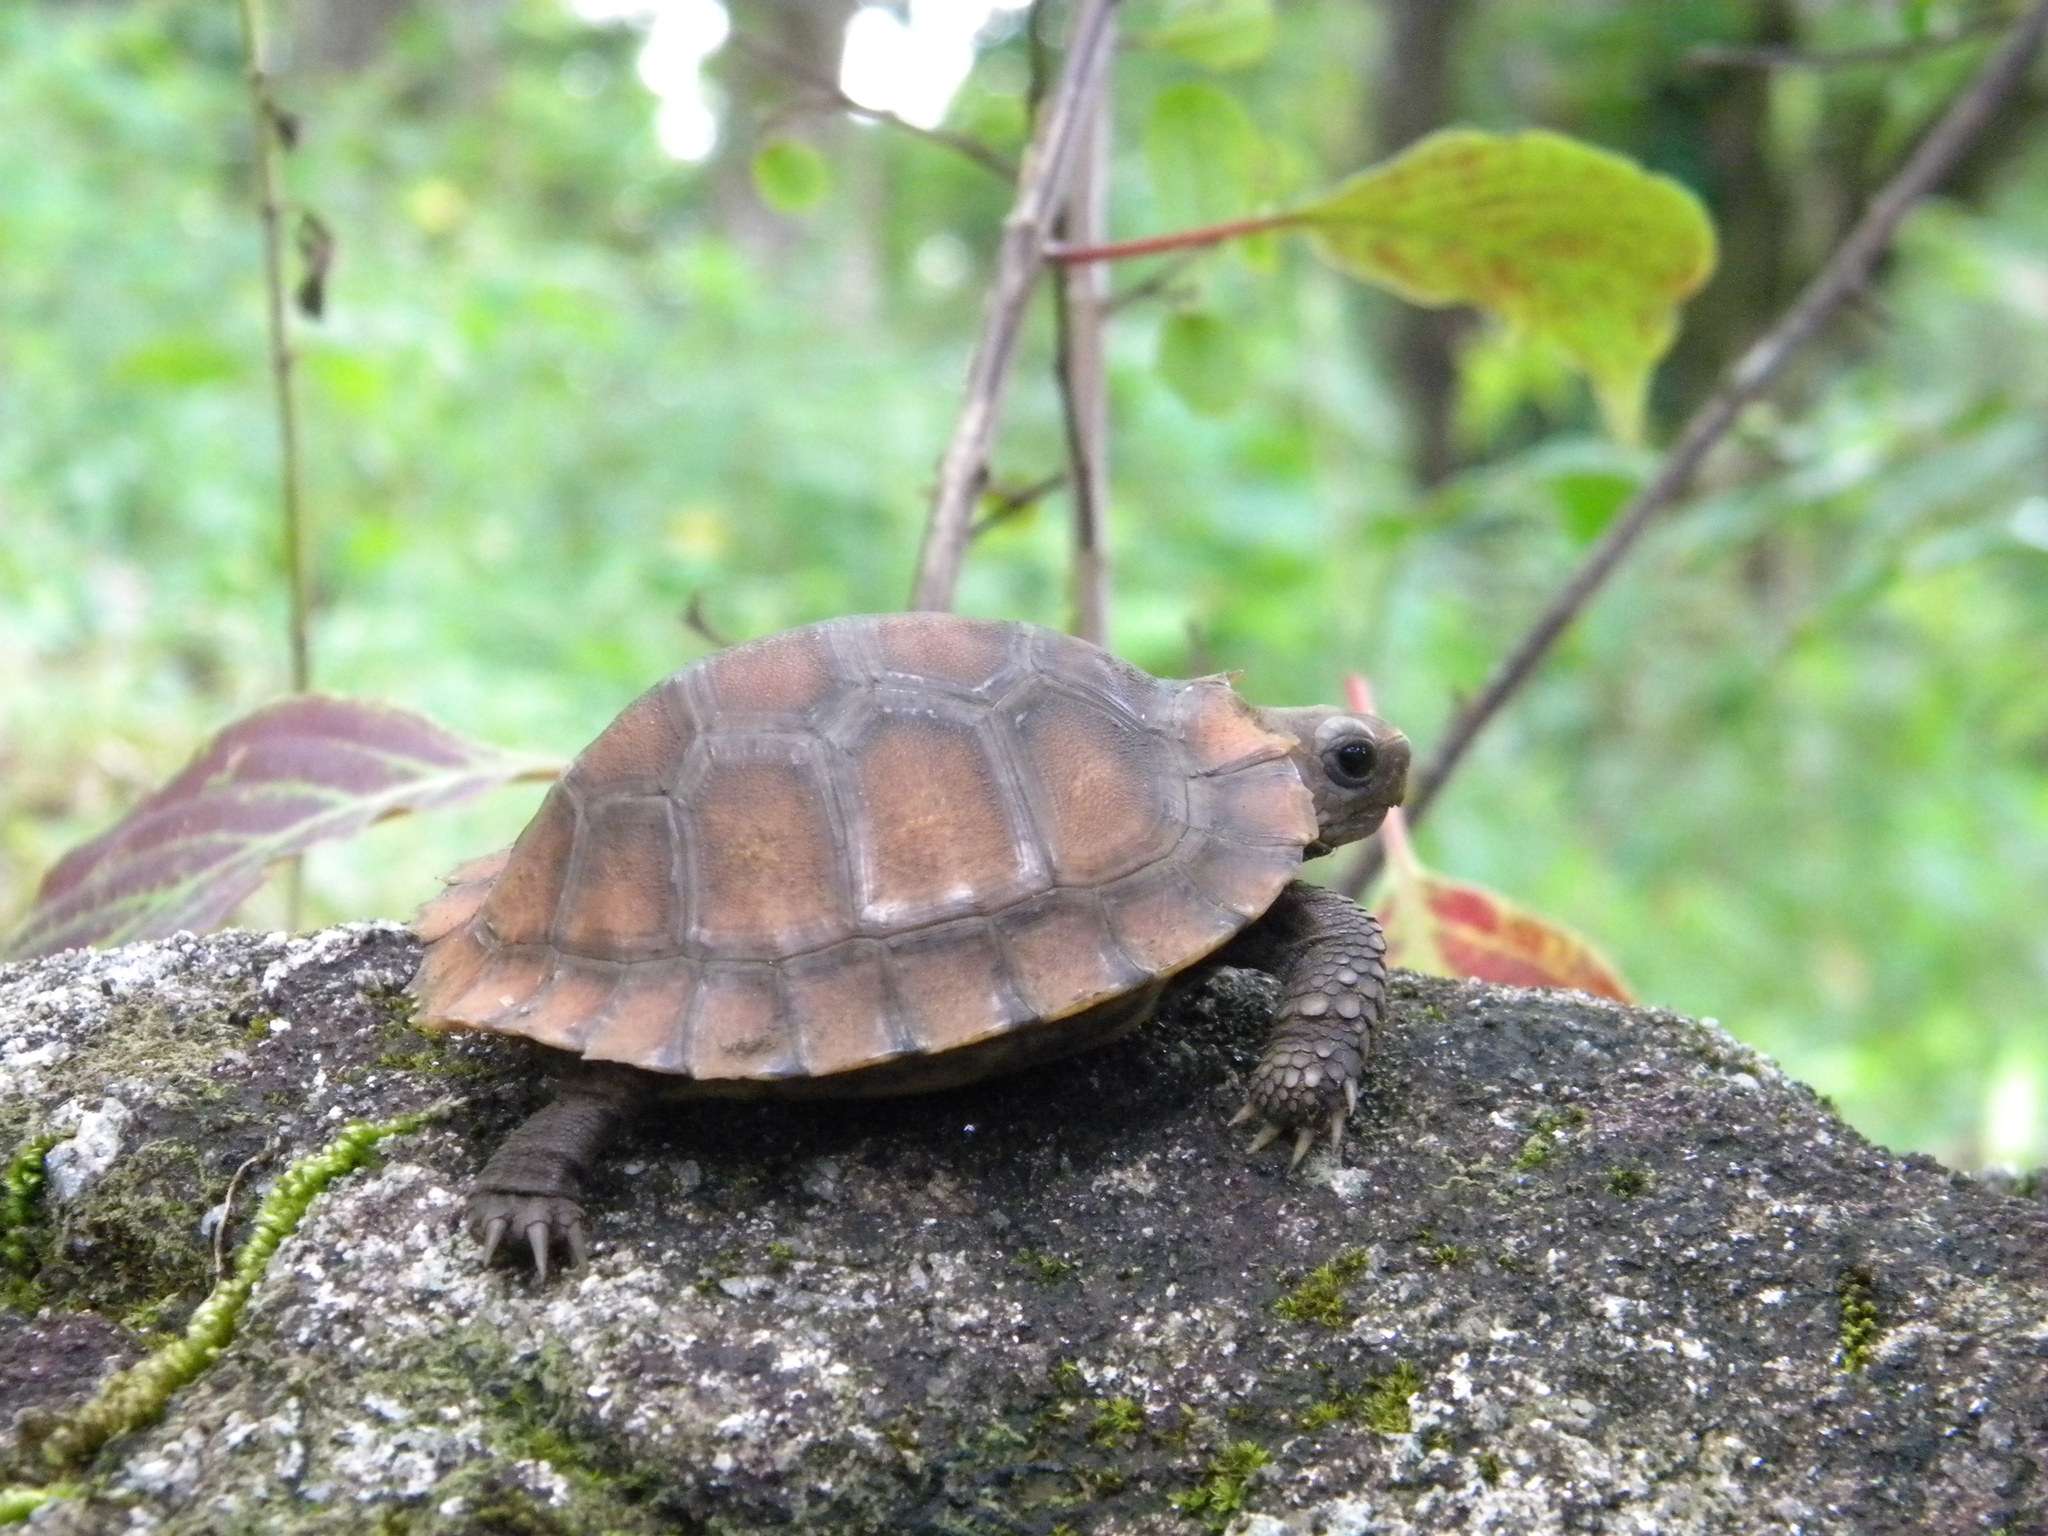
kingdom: Animalia
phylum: Chordata
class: Testudines
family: Testudinidae
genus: Indotestudo
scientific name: Indotestudo travancorica
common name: Travancore tortoise
